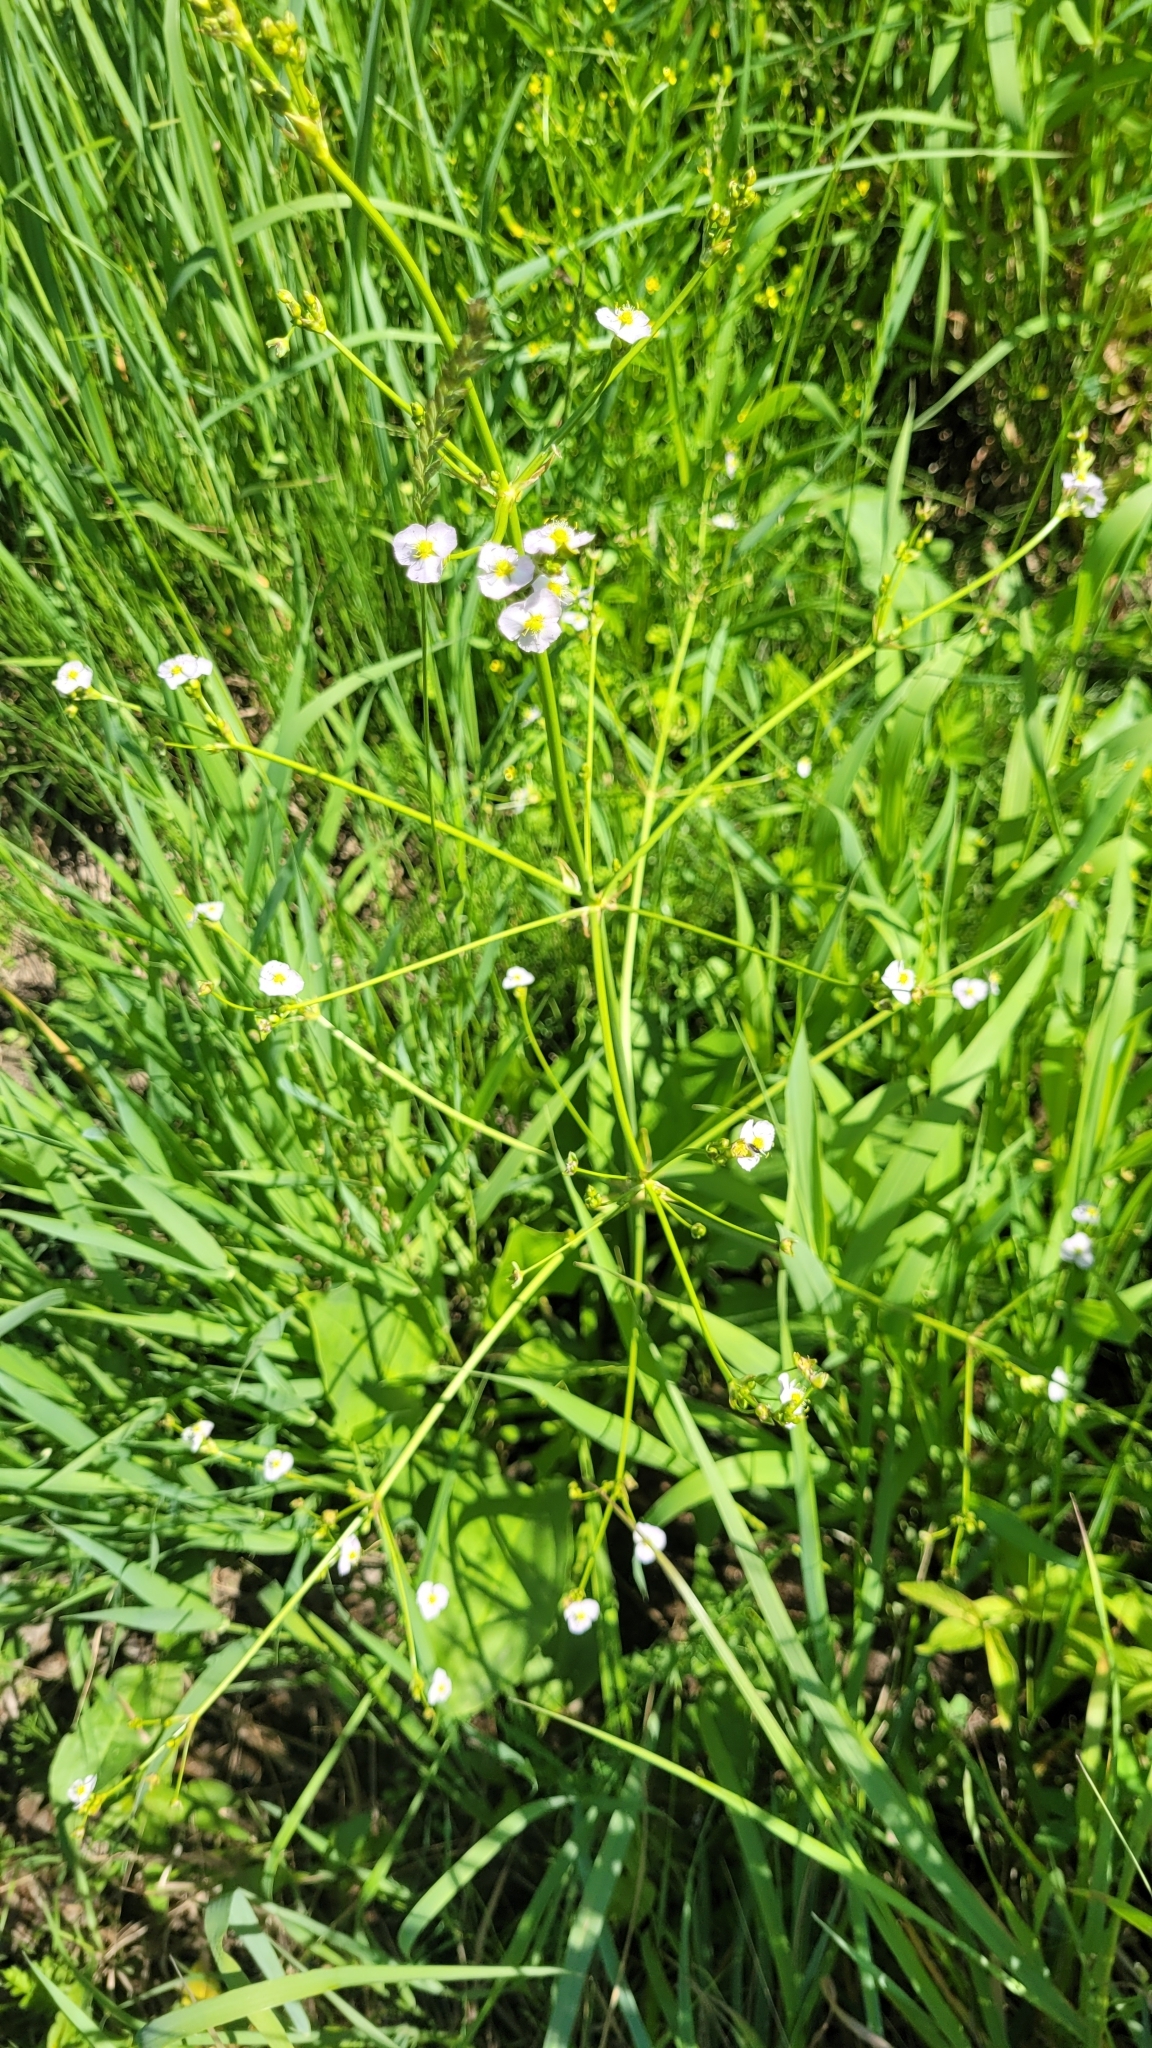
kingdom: Plantae
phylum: Tracheophyta
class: Liliopsida
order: Alismatales
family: Alismataceae
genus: Alisma
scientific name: Alisma plantago-aquatica
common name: Water-plantain
